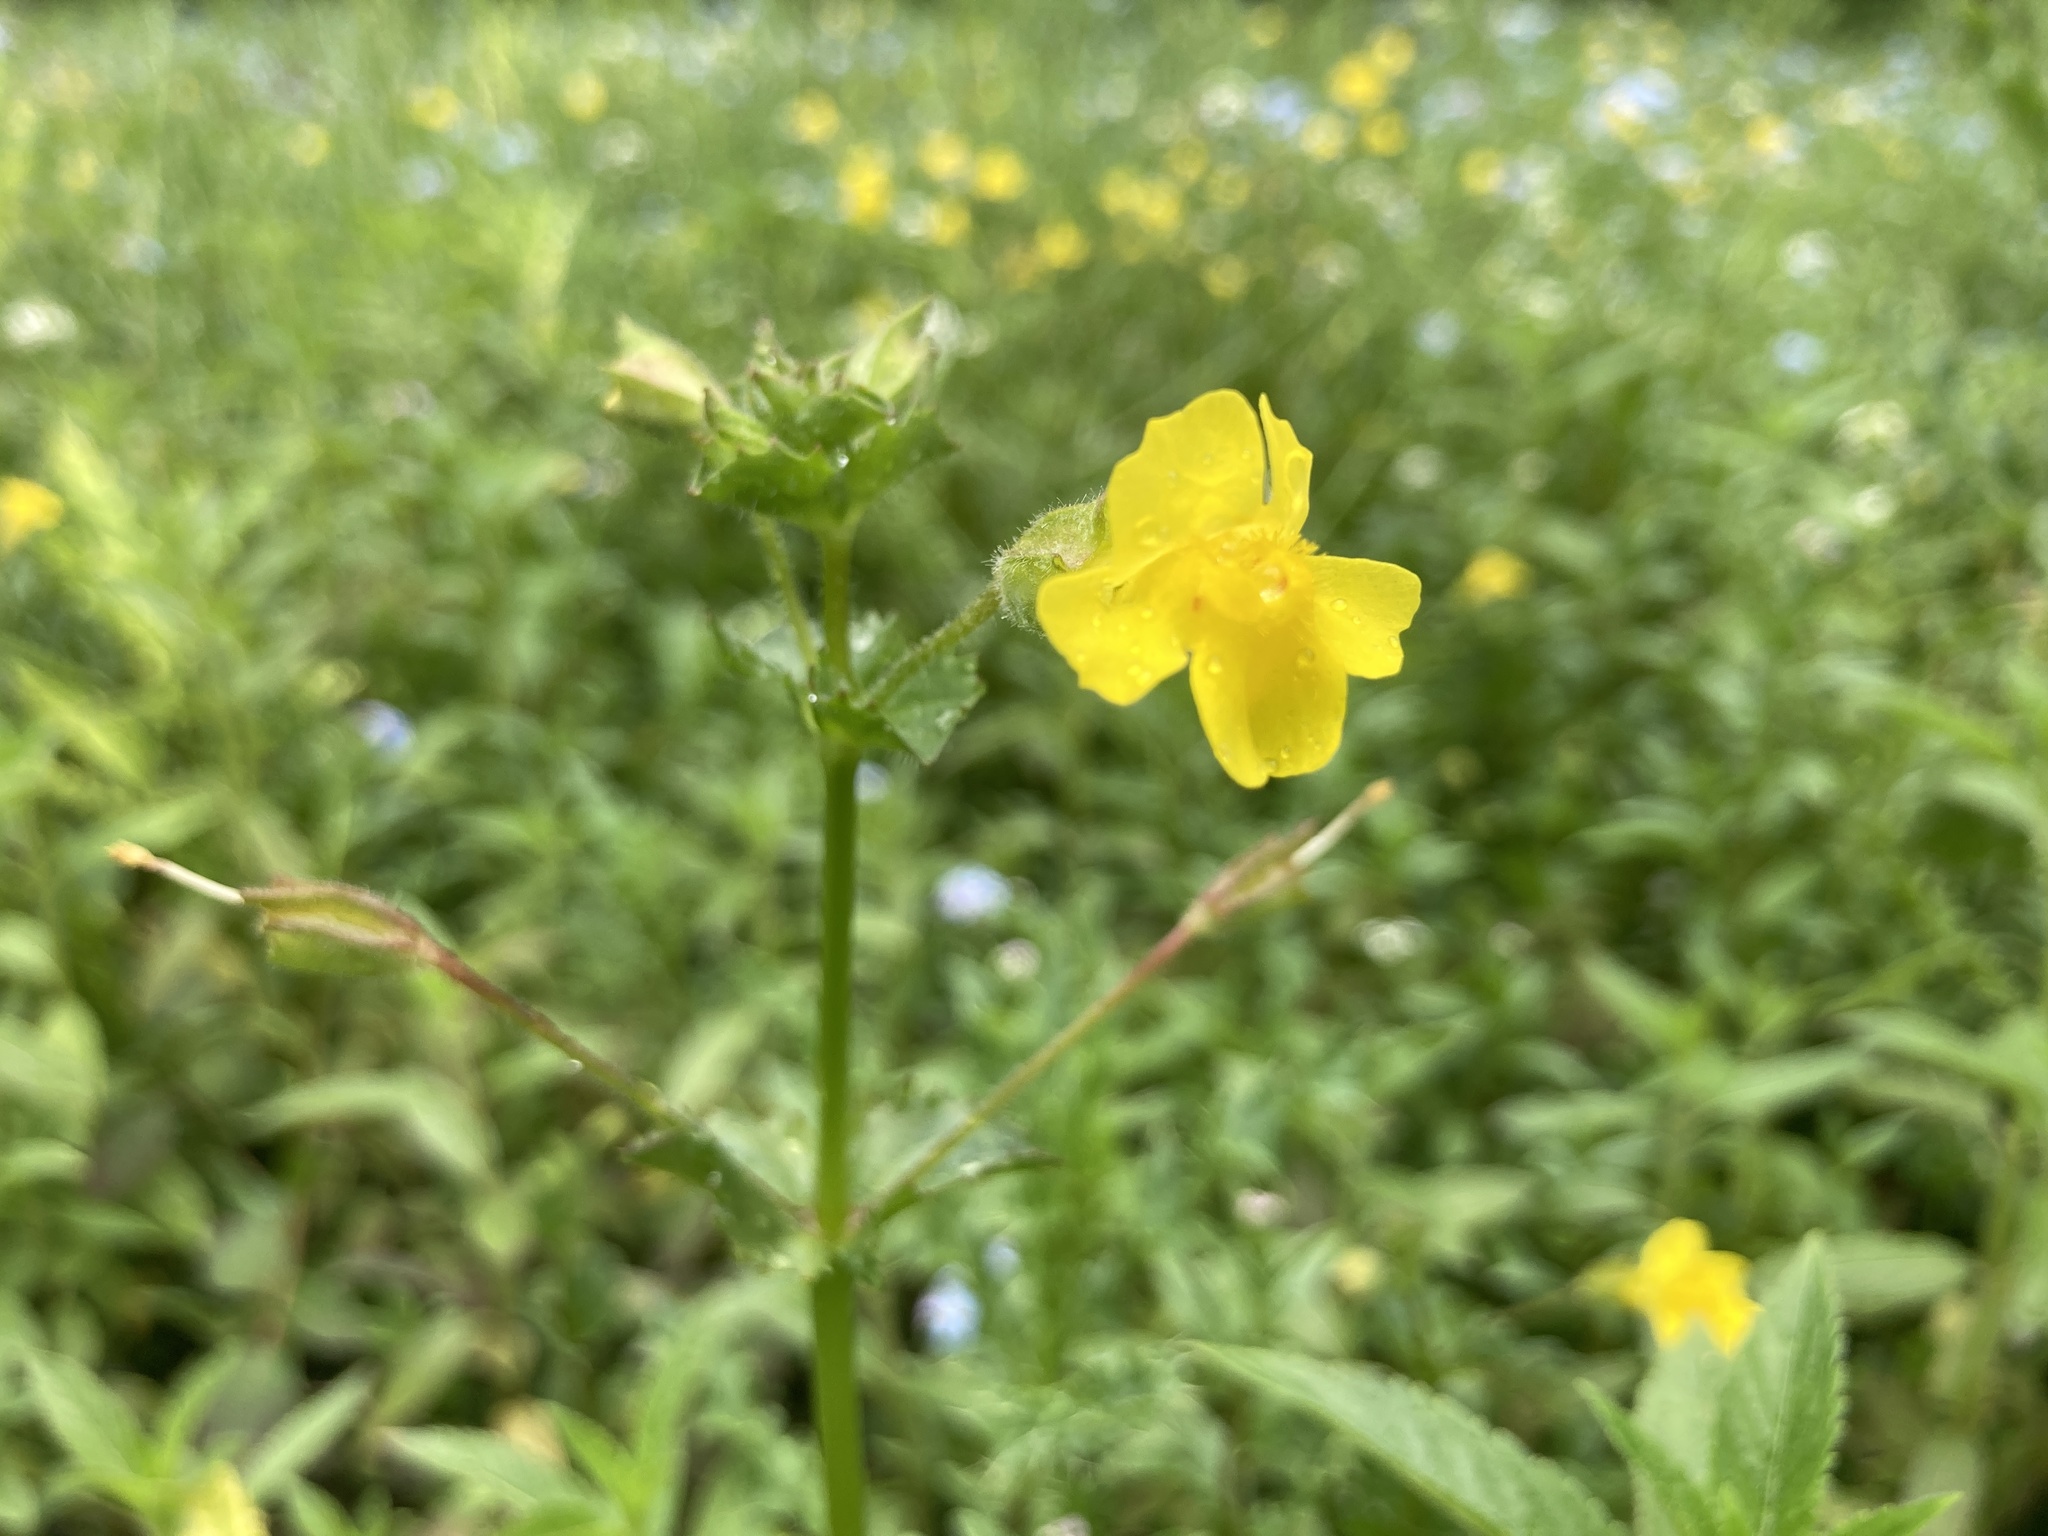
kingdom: Plantae
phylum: Tracheophyta
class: Magnoliopsida
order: Lamiales
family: Phrymaceae
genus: Erythranthe
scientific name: Erythranthe michiganensis
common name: Michigan monkey-flower
